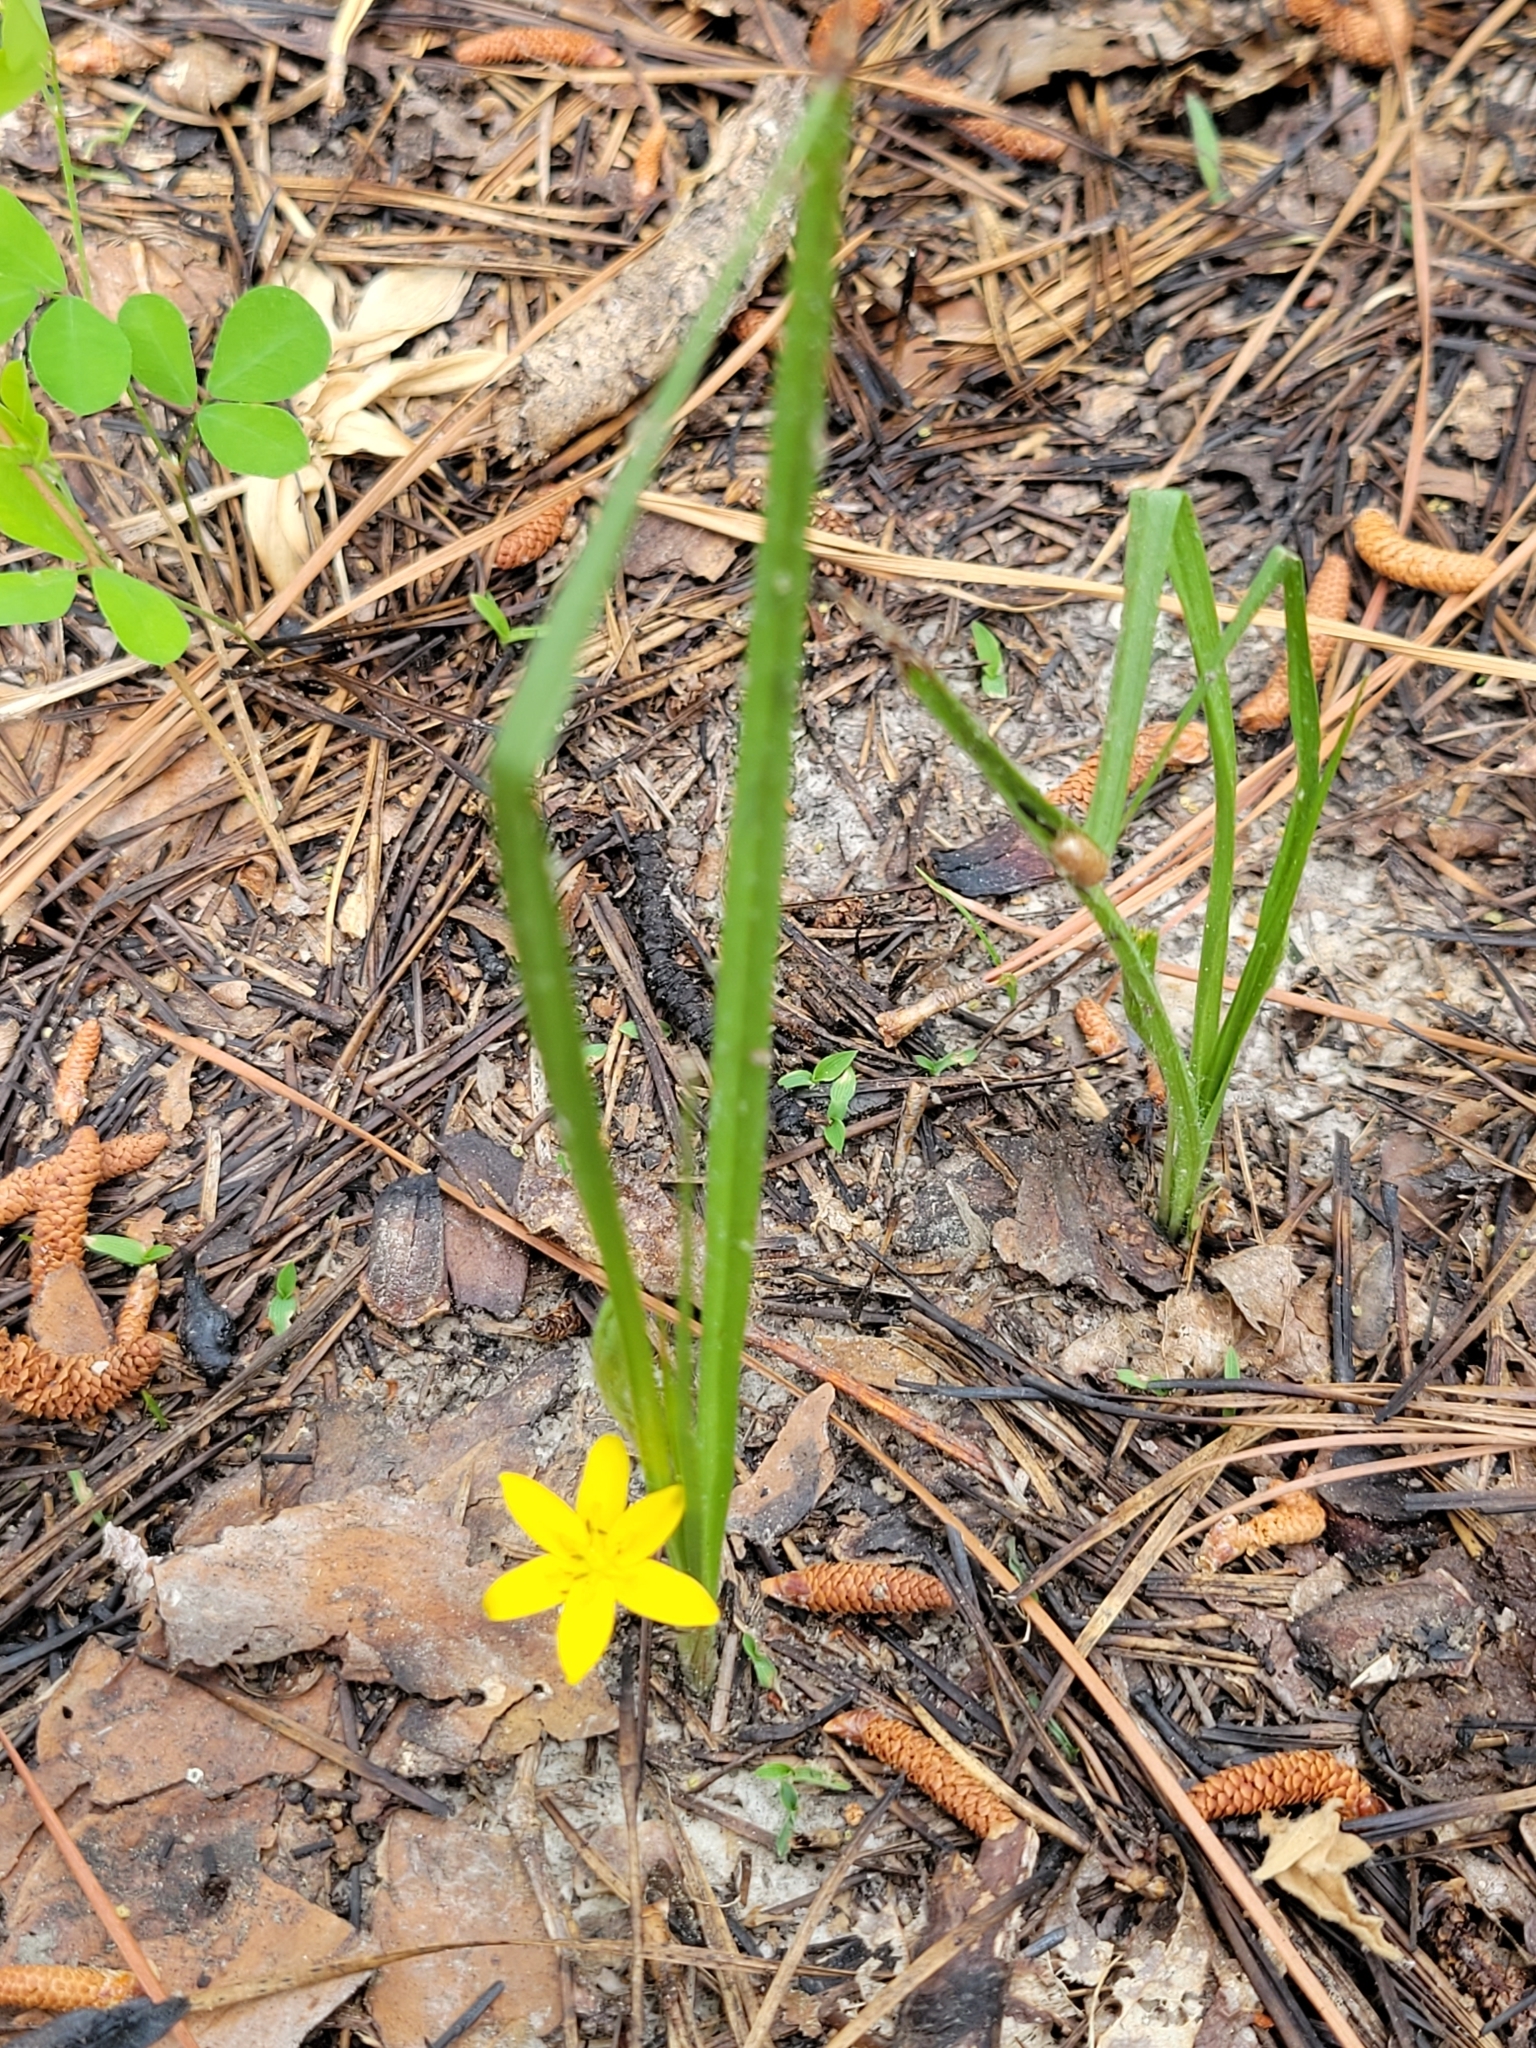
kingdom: Plantae
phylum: Tracheophyta
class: Liliopsida
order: Asparagales
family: Hypoxidaceae
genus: Hypoxis
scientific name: Hypoxis hirsuta
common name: Common goldstar
